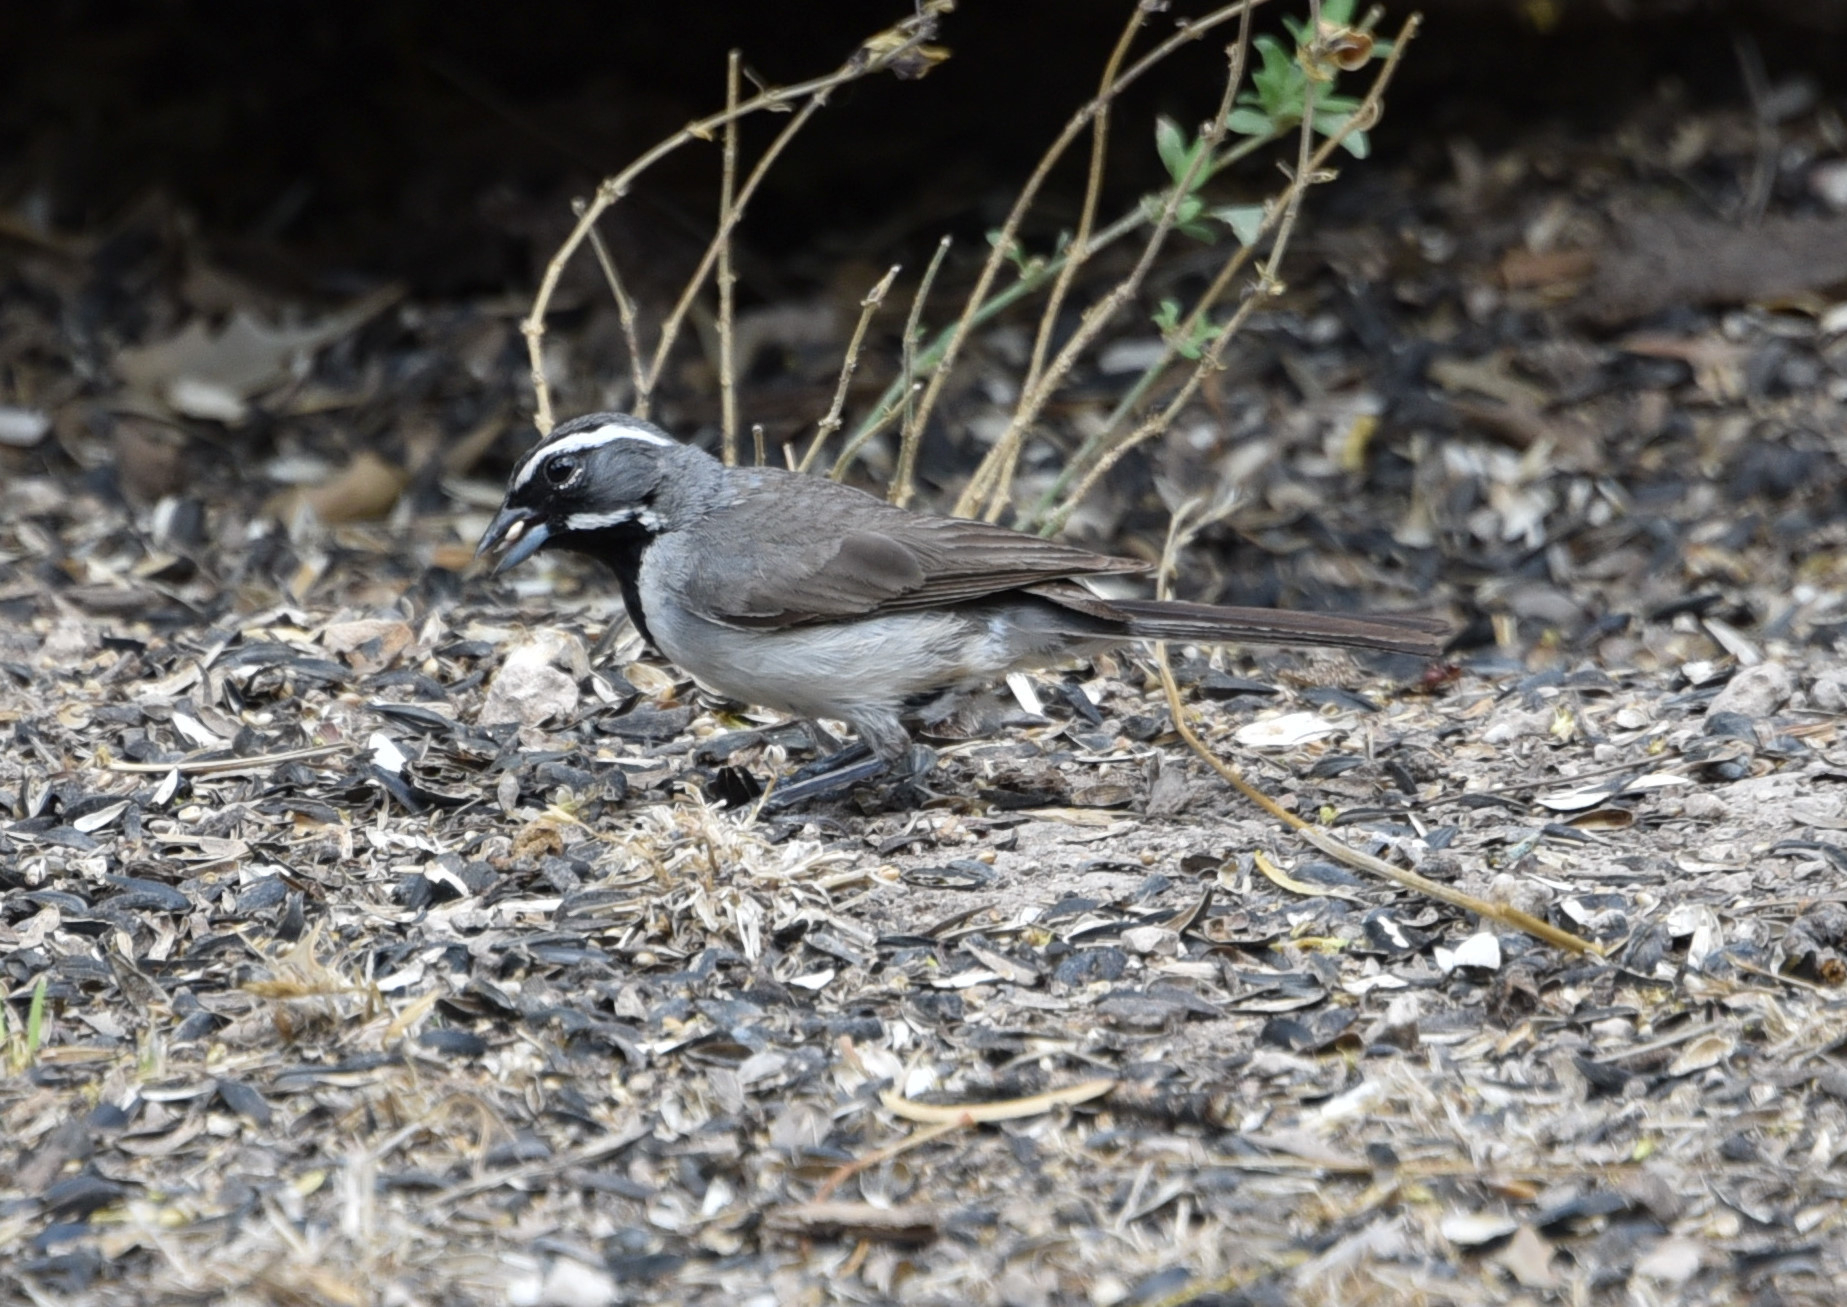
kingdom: Animalia
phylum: Chordata
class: Aves
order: Passeriformes
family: Passerellidae
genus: Amphispiza
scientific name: Amphispiza bilineata
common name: Black-throated sparrow
